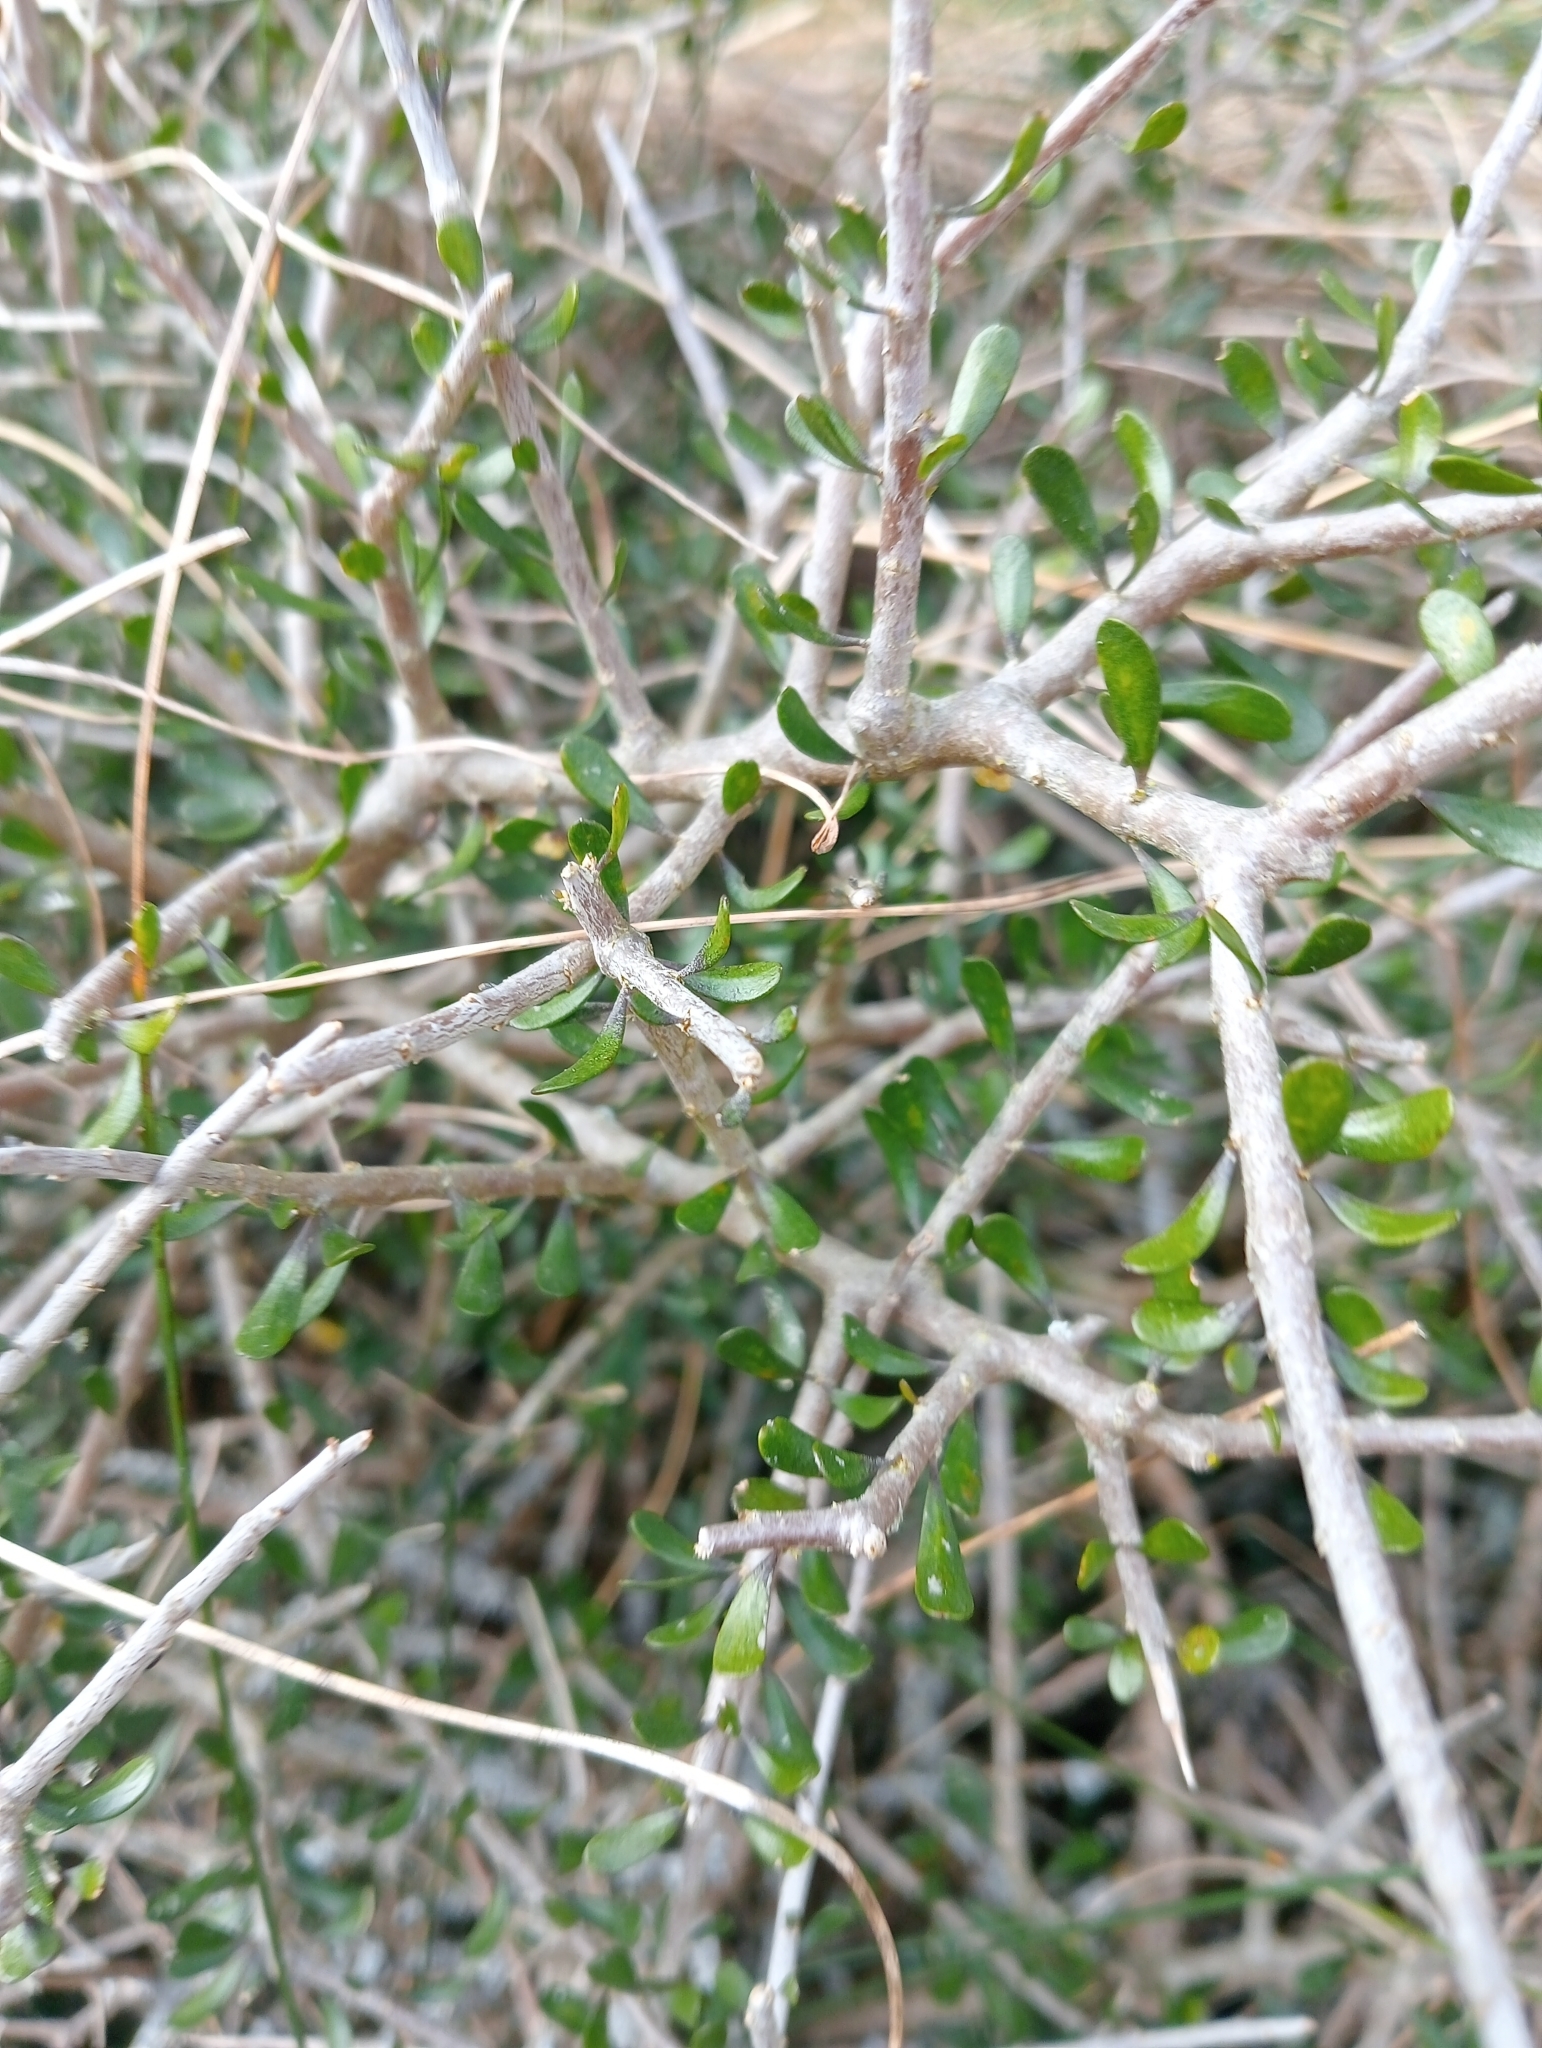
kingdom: Plantae
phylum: Tracheophyta
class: Magnoliopsida
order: Malpighiales
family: Violaceae
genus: Melicytus
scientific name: Melicytus alpinus
